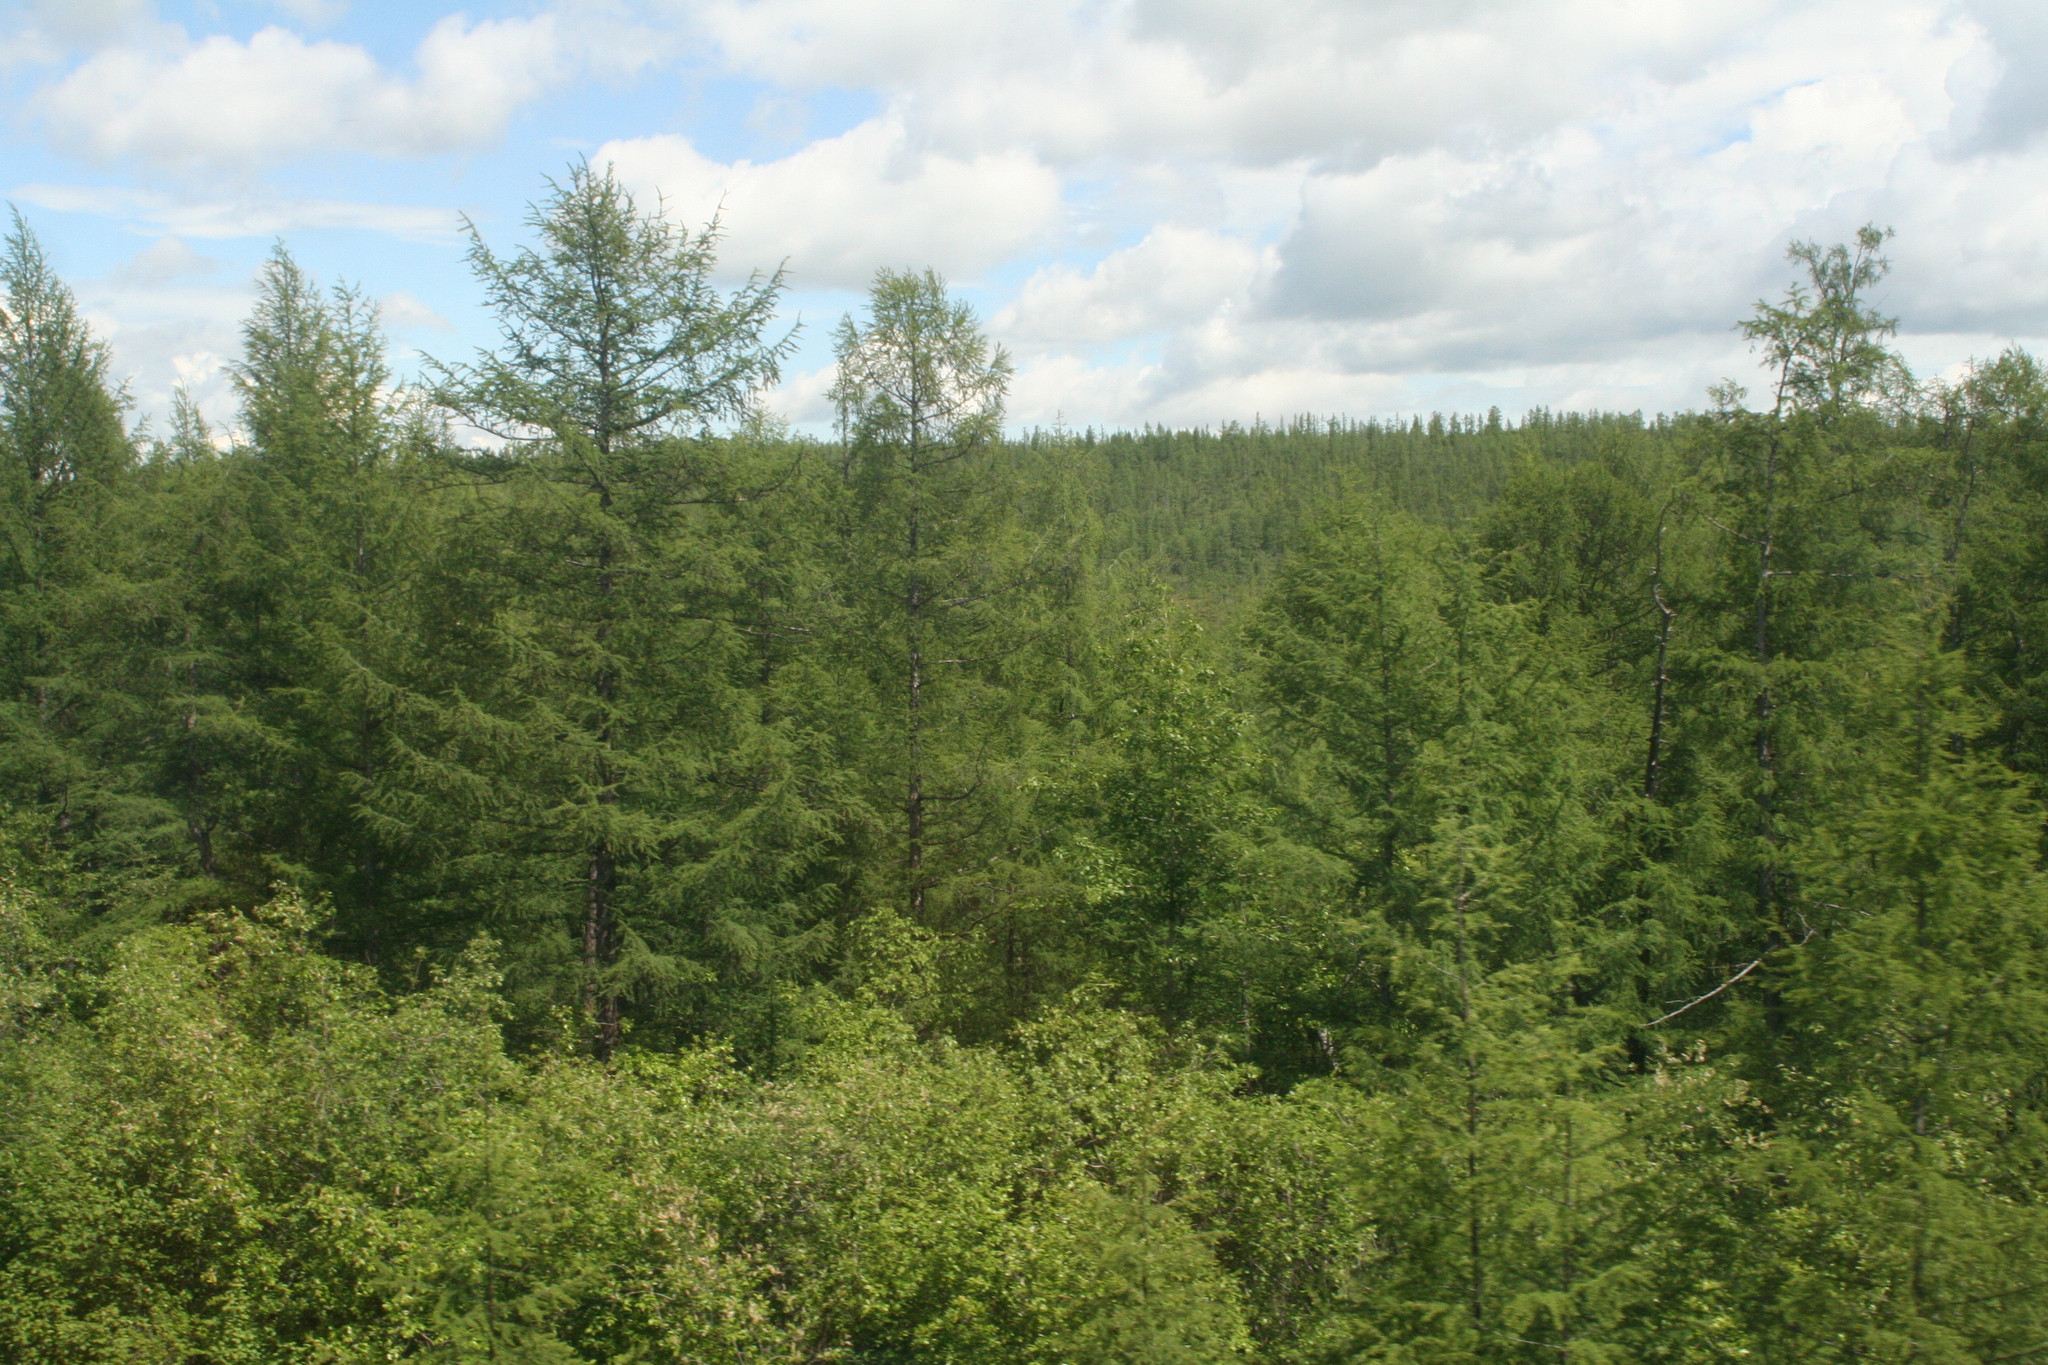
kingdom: Plantae
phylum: Tracheophyta
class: Pinopsida
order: Pinales
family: Pinaceae
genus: Larix
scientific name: Larix gmelinii
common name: Dahurian larch
